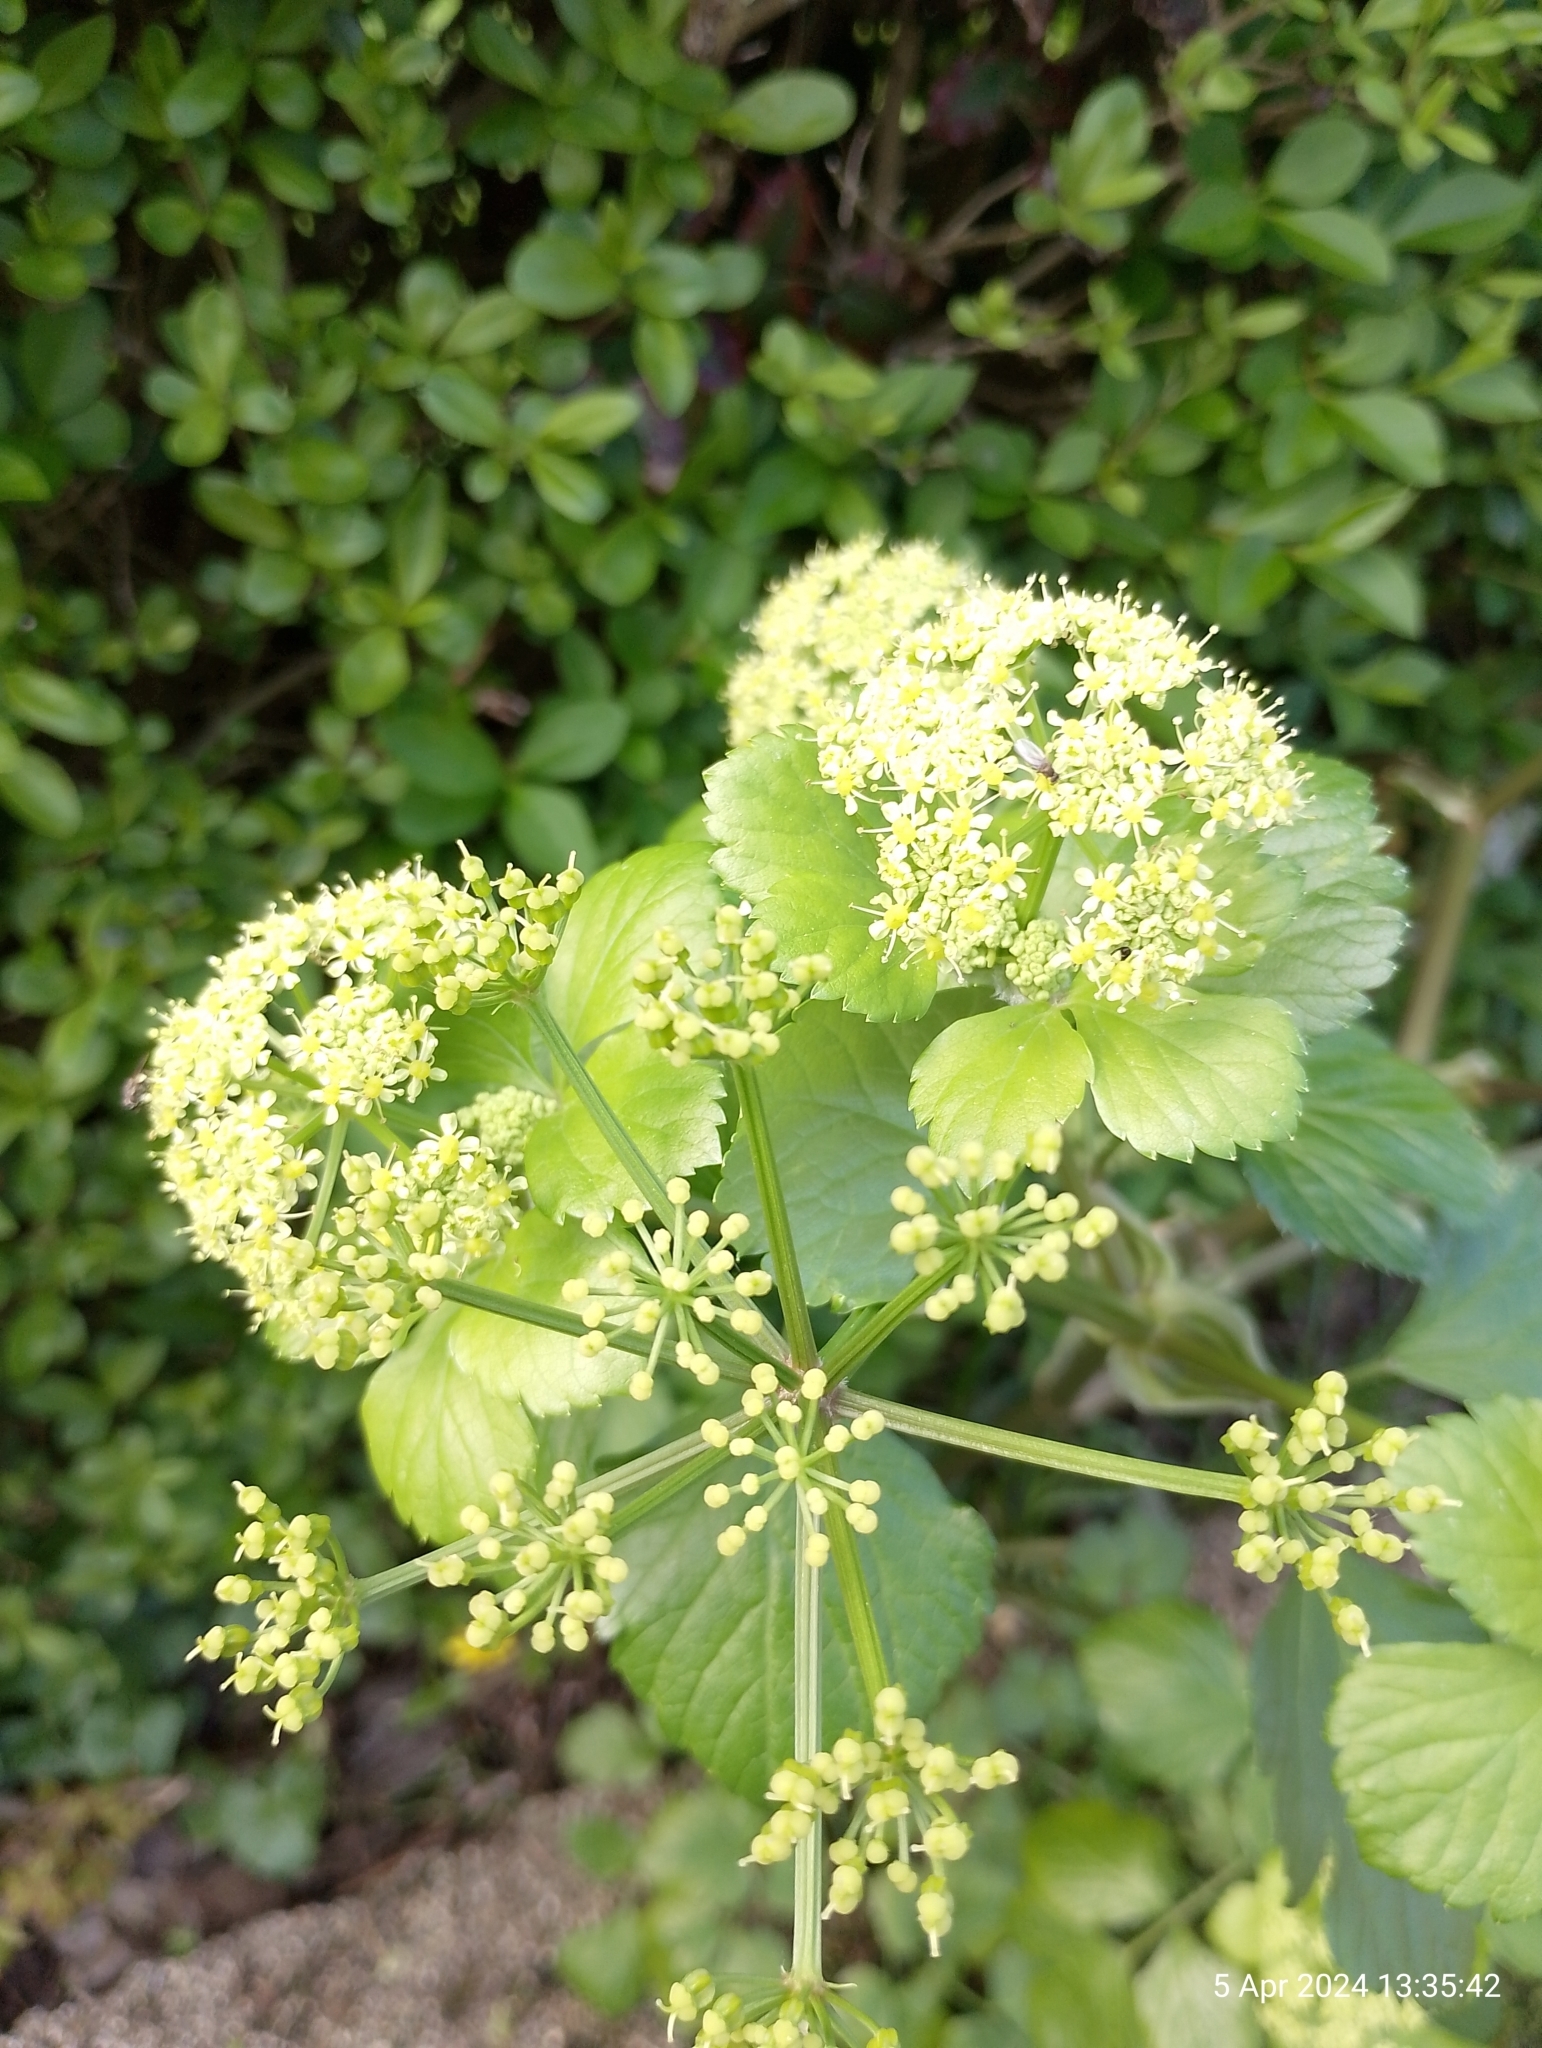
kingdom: Plantae
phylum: Tracheophyta
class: Magnoliopsida
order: Apiales
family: Apiaceae
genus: Smyrnium
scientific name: Smyrnium olusatrum
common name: Alexanders
